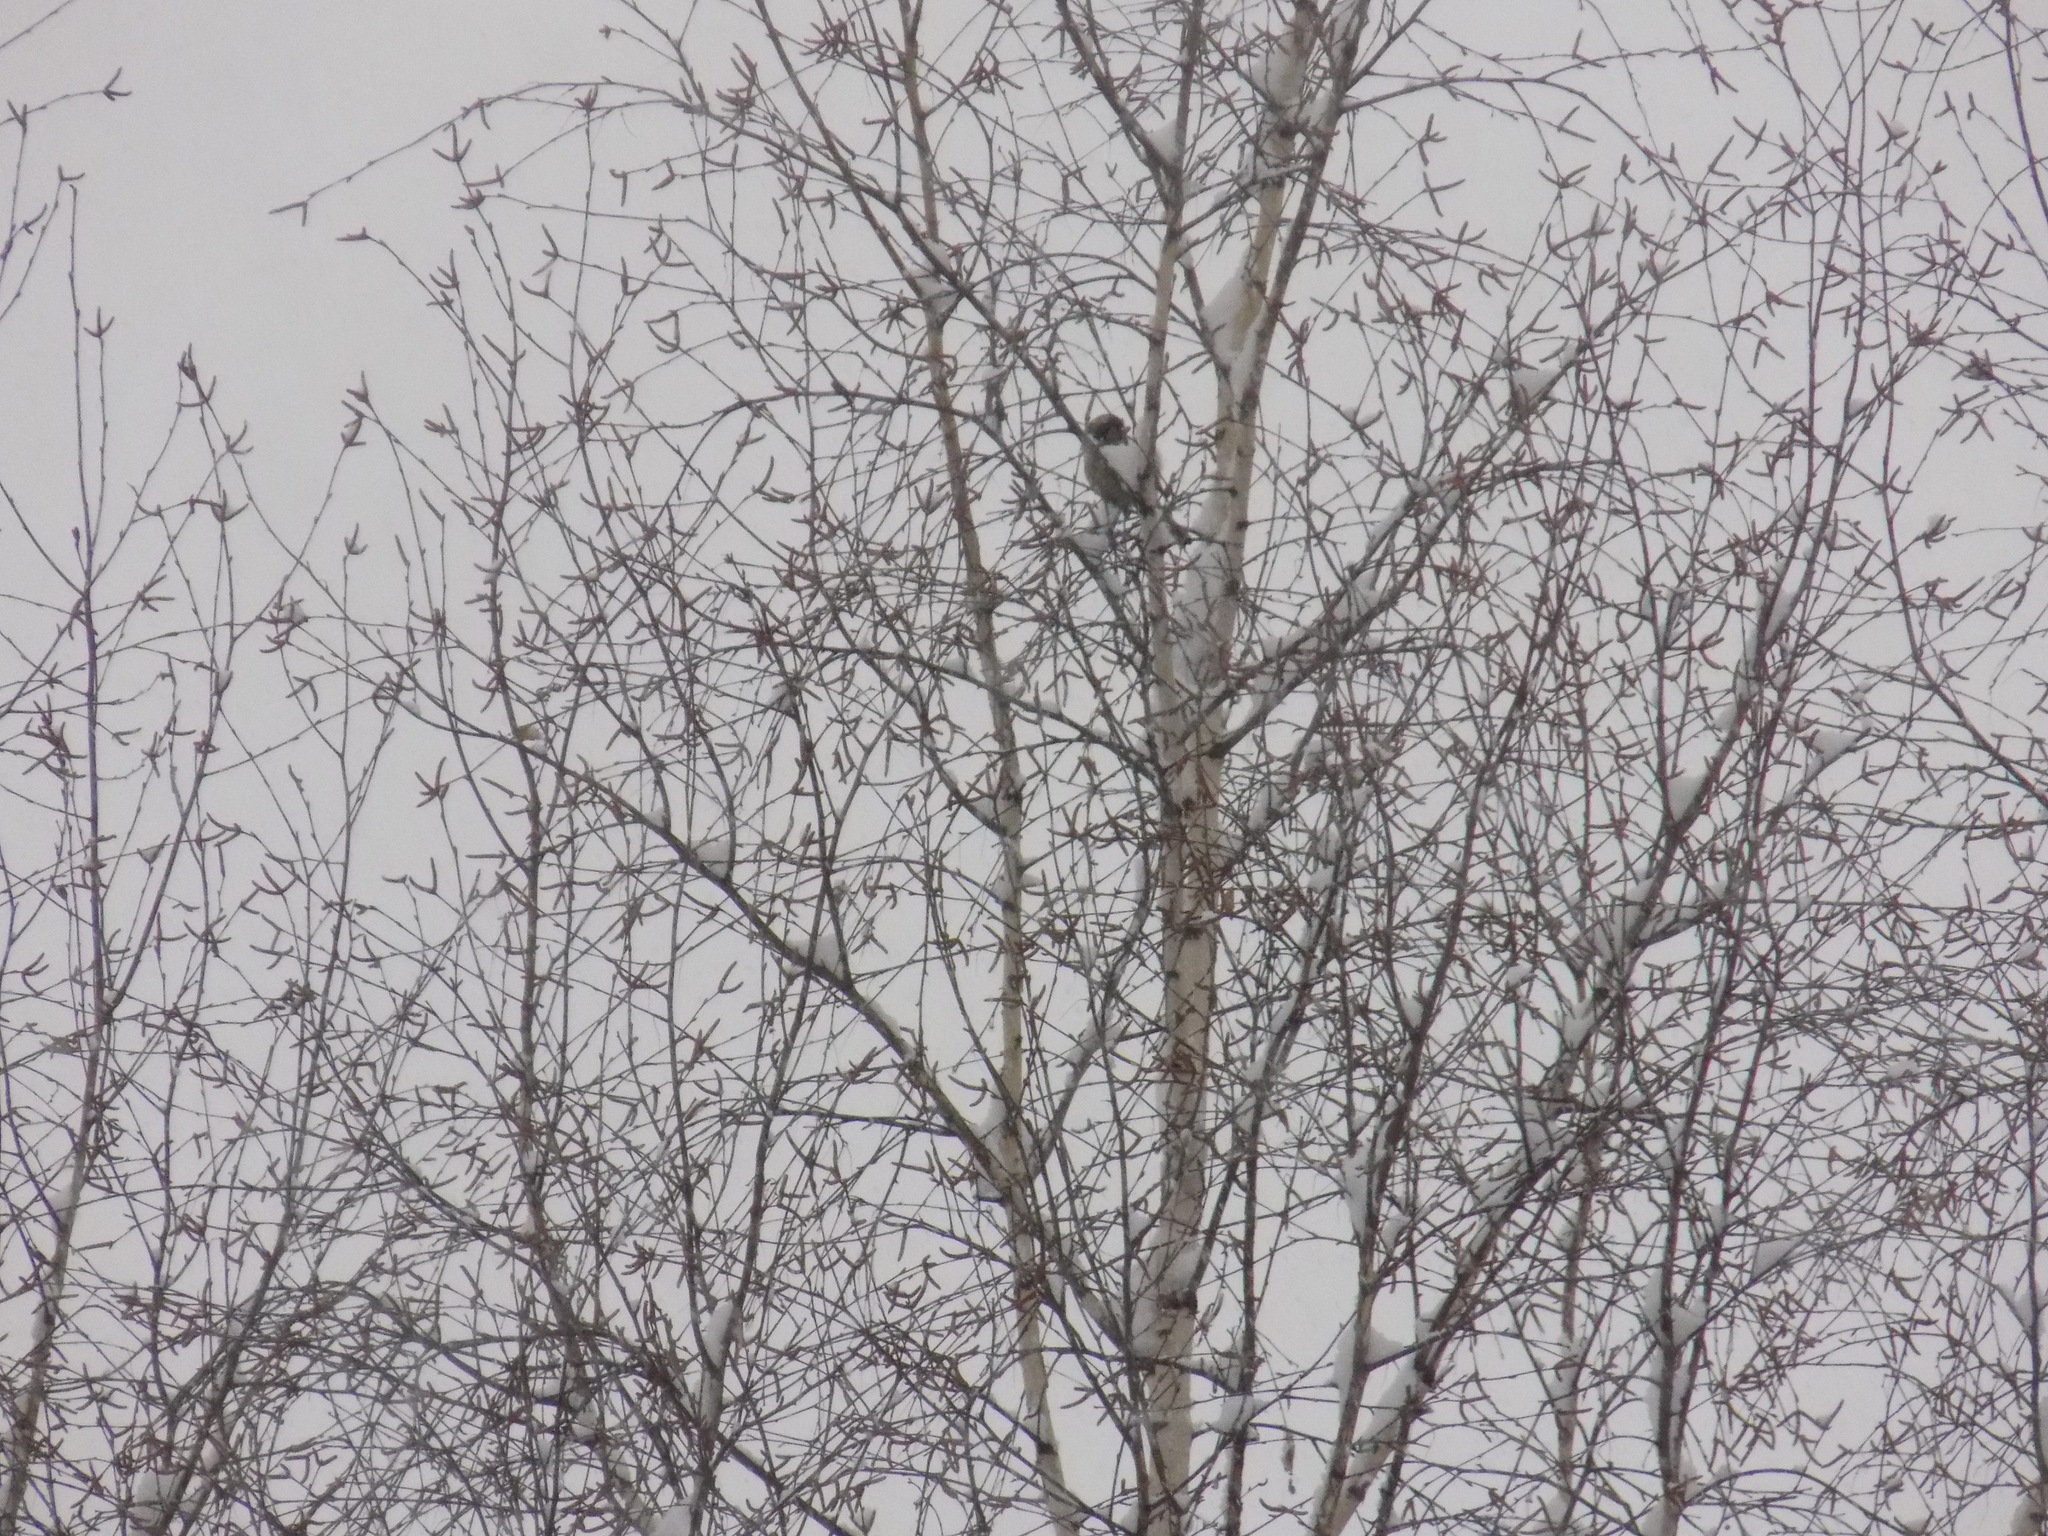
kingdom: Animalia
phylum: Chordata
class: Aves
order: Passeriformes
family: Paridae
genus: Parus
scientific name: Parus major
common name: Great tit
